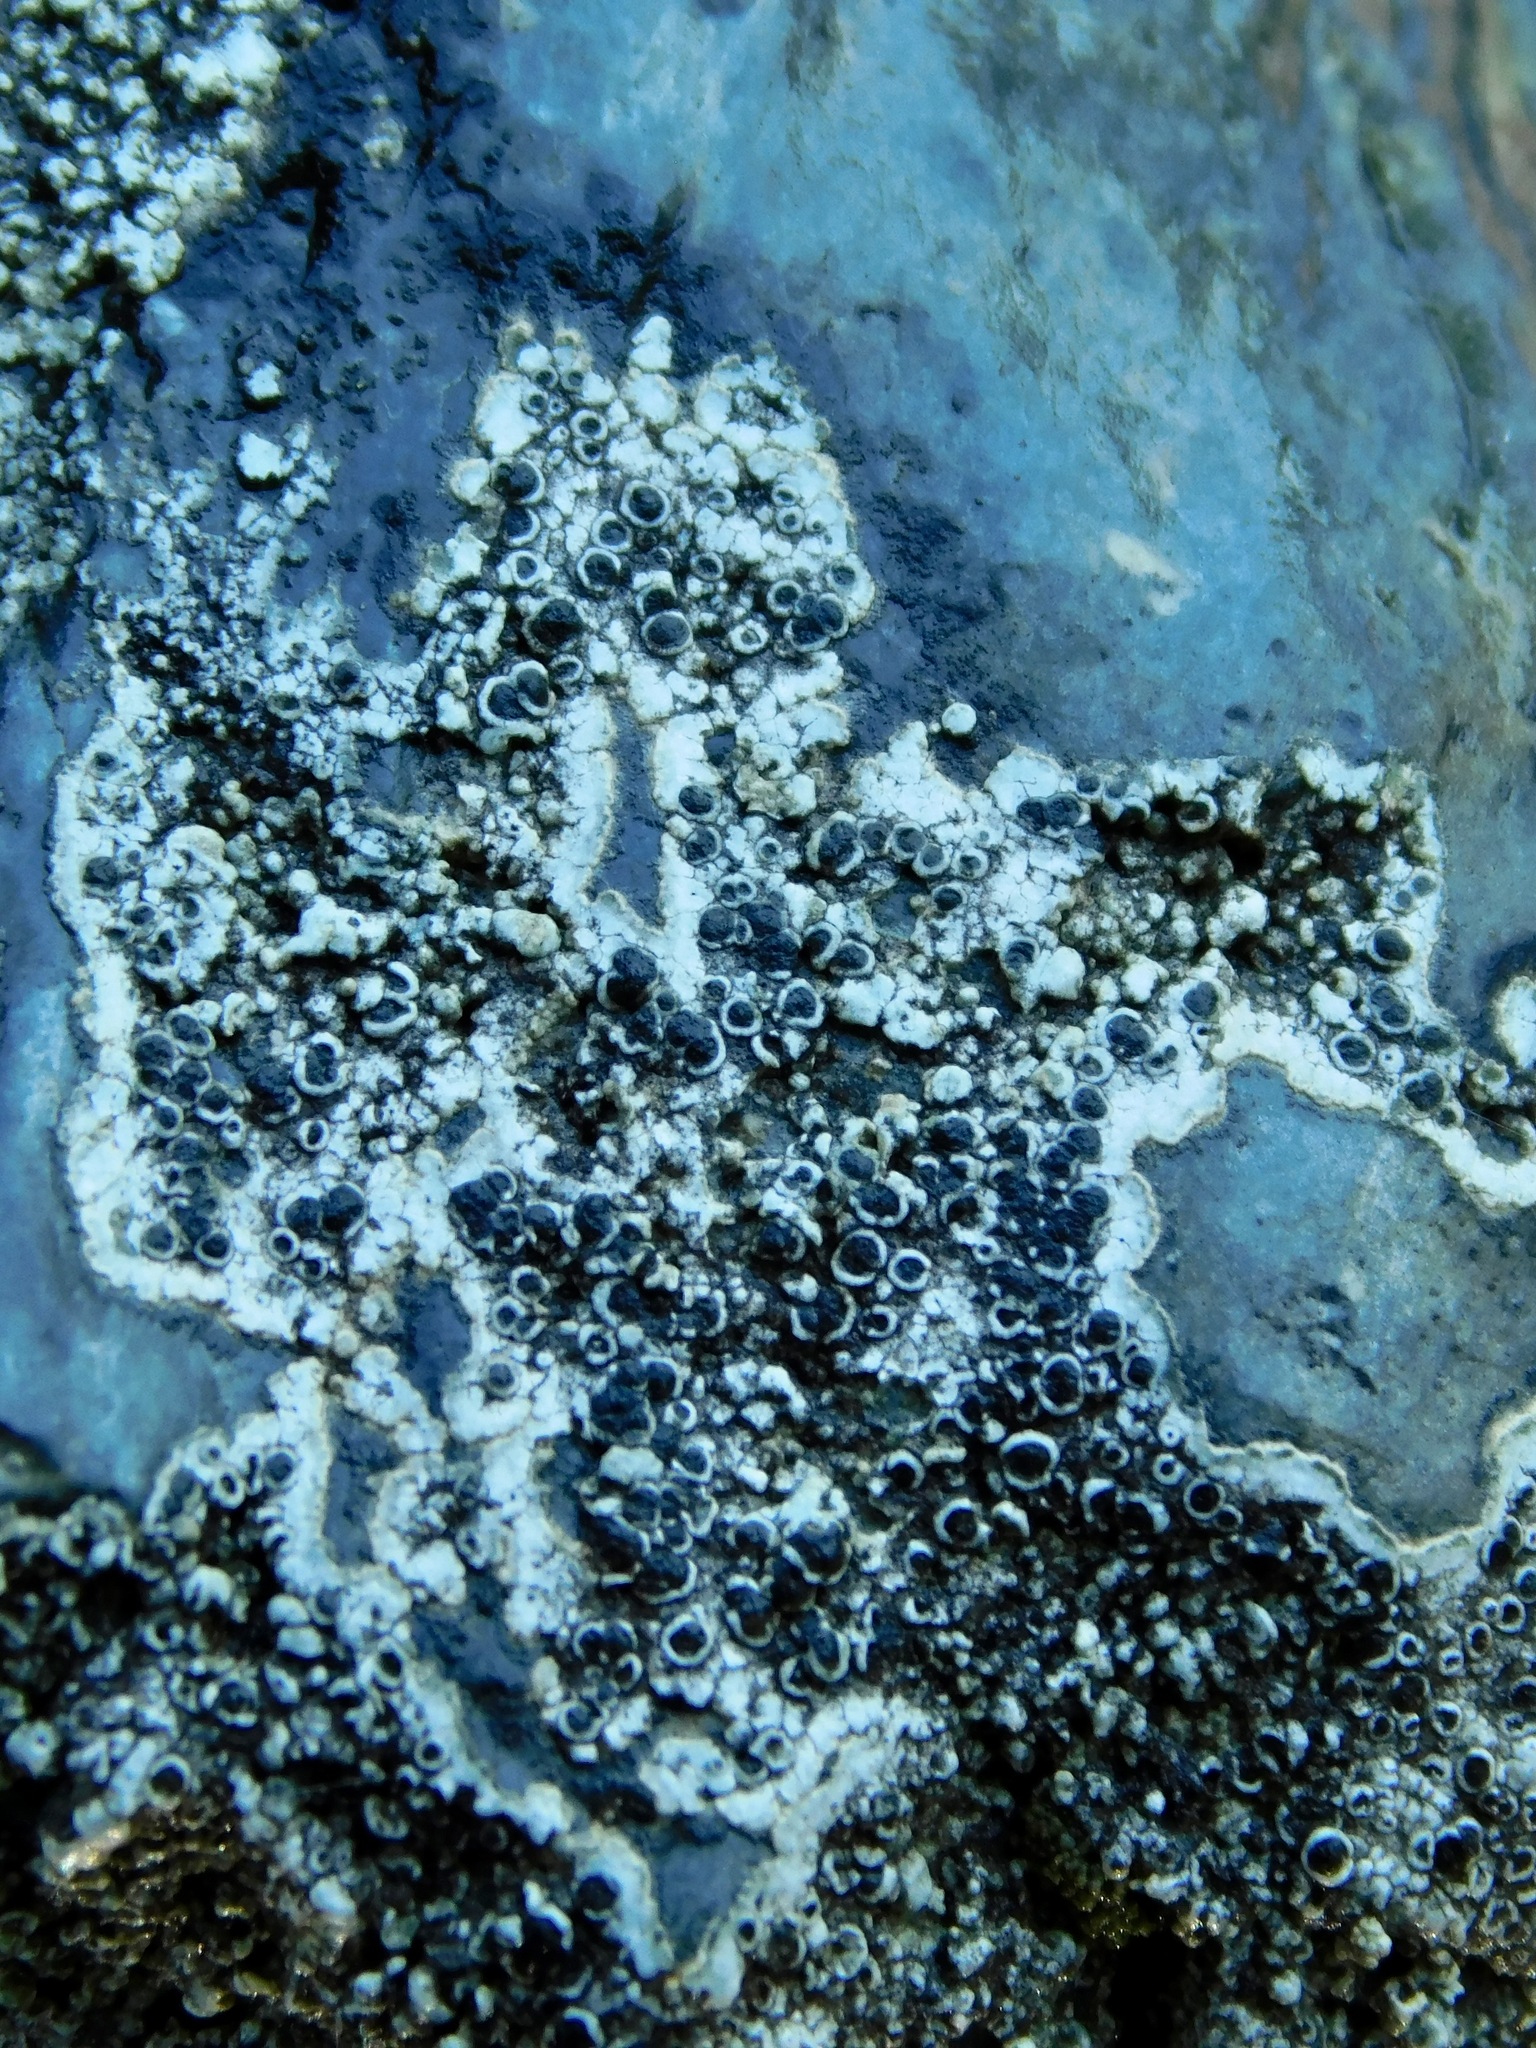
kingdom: Fungi
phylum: Ascomycota
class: Lecanoromycetes
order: Caliciales
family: Physciaceae
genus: Mischoblastia
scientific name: Mischoblastia oxydata
